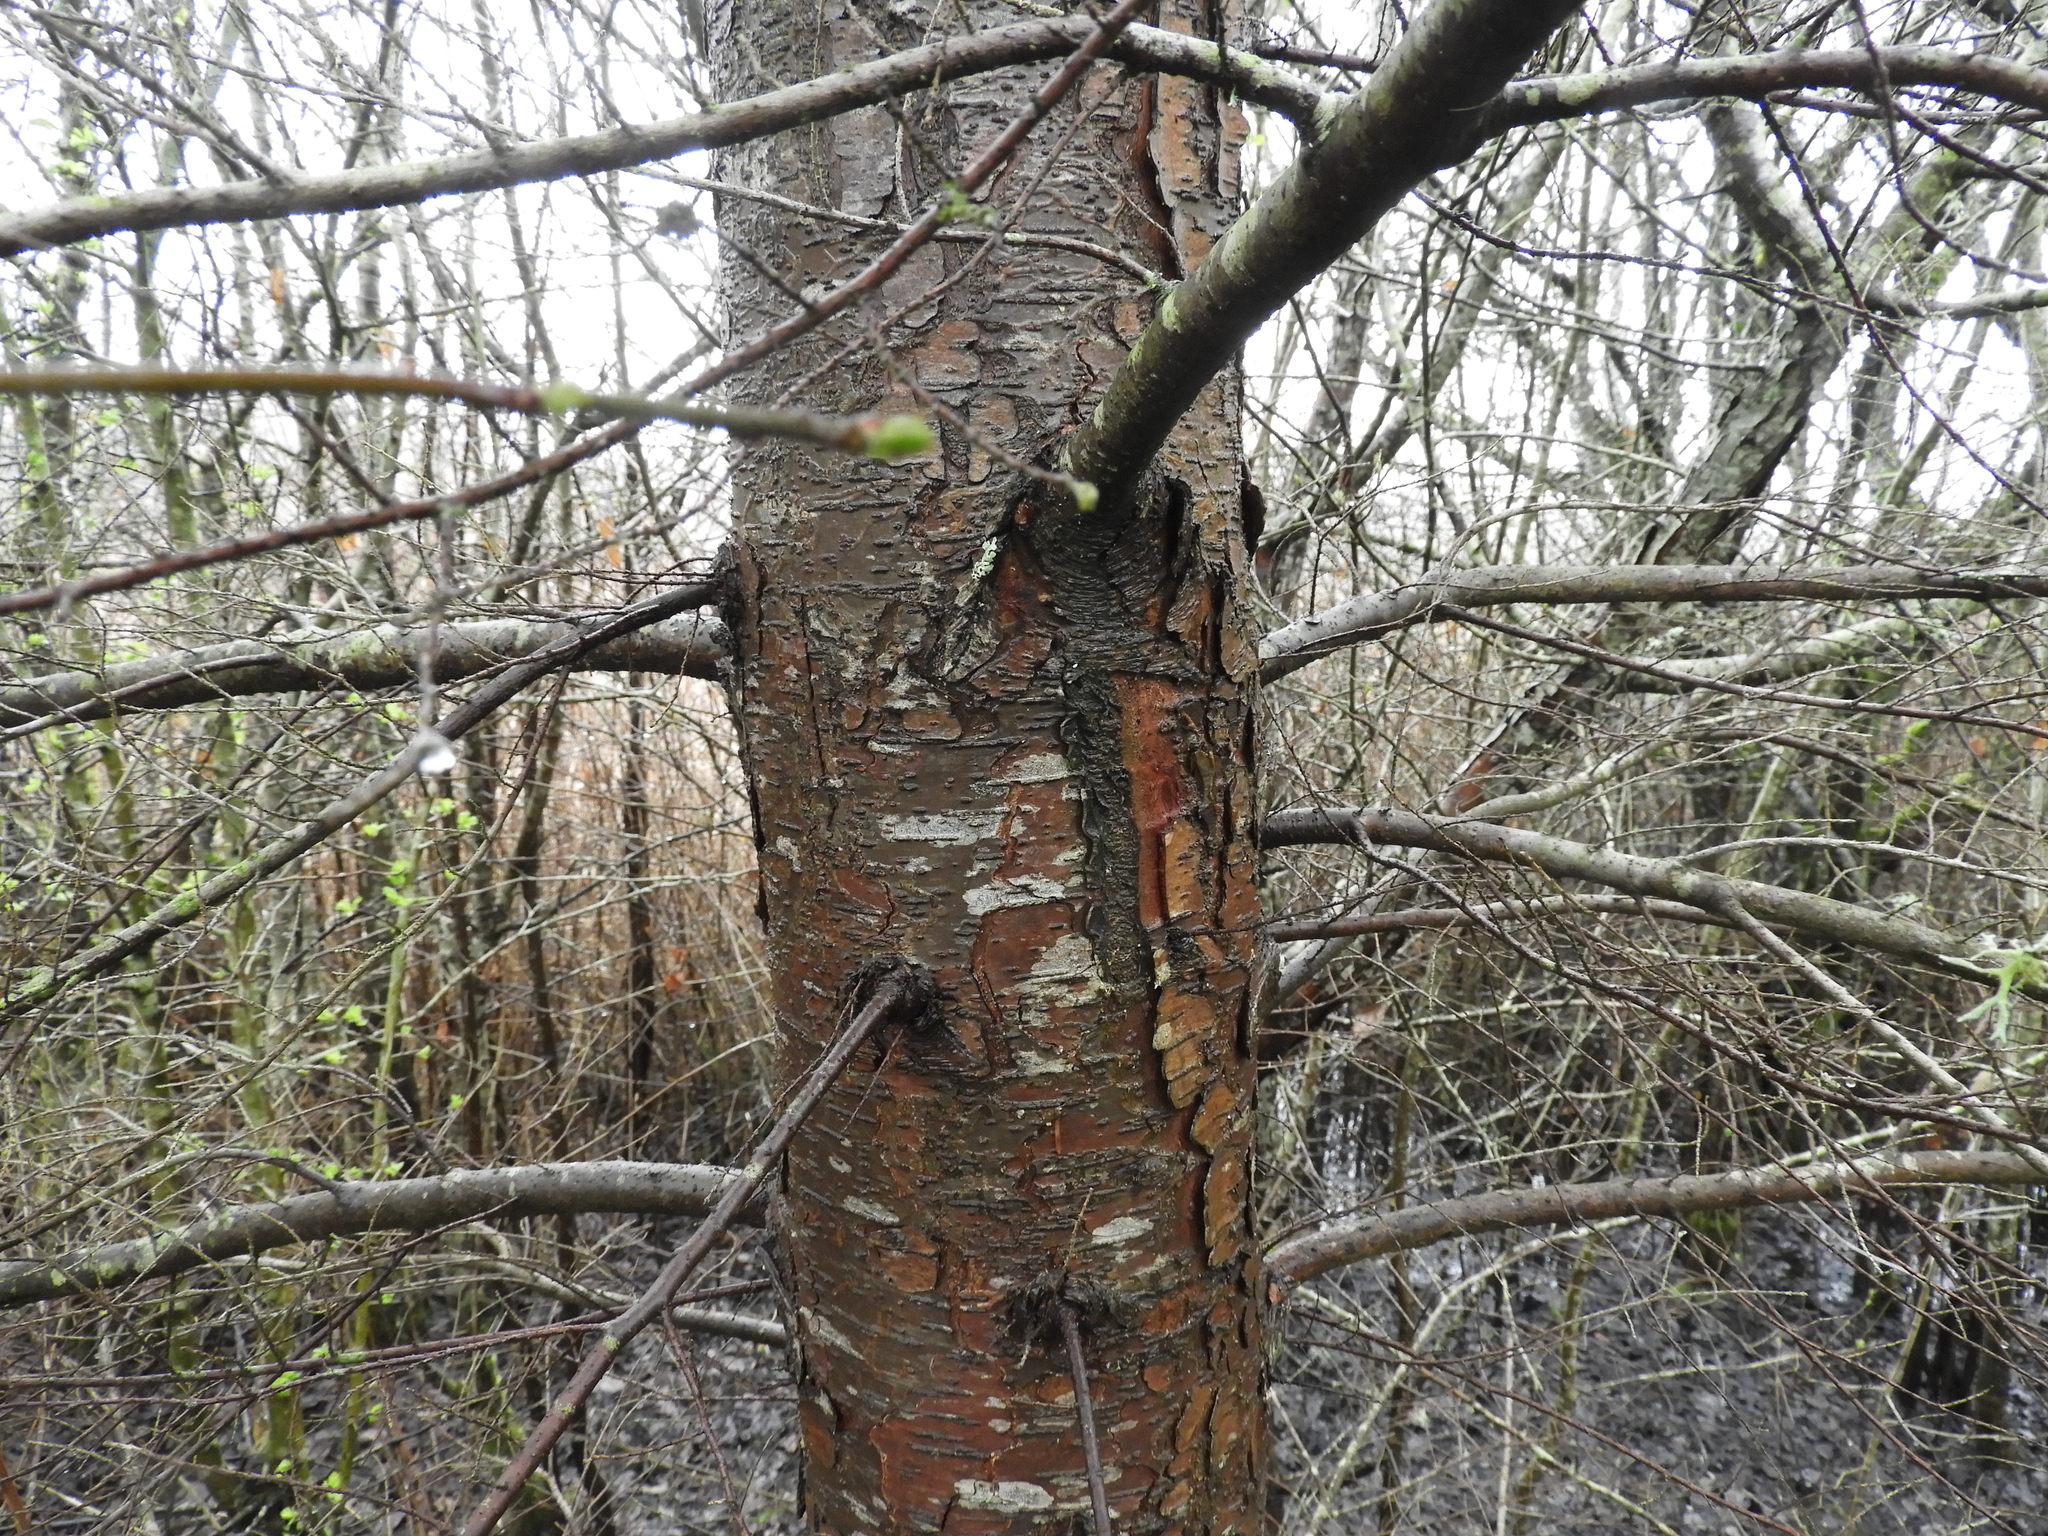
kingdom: Plantae
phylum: Tracheophyta
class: Pinopsida
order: Pinales
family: Pinaceae
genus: Tsuga
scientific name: Tsuga heterophylla
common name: Western hemlock
